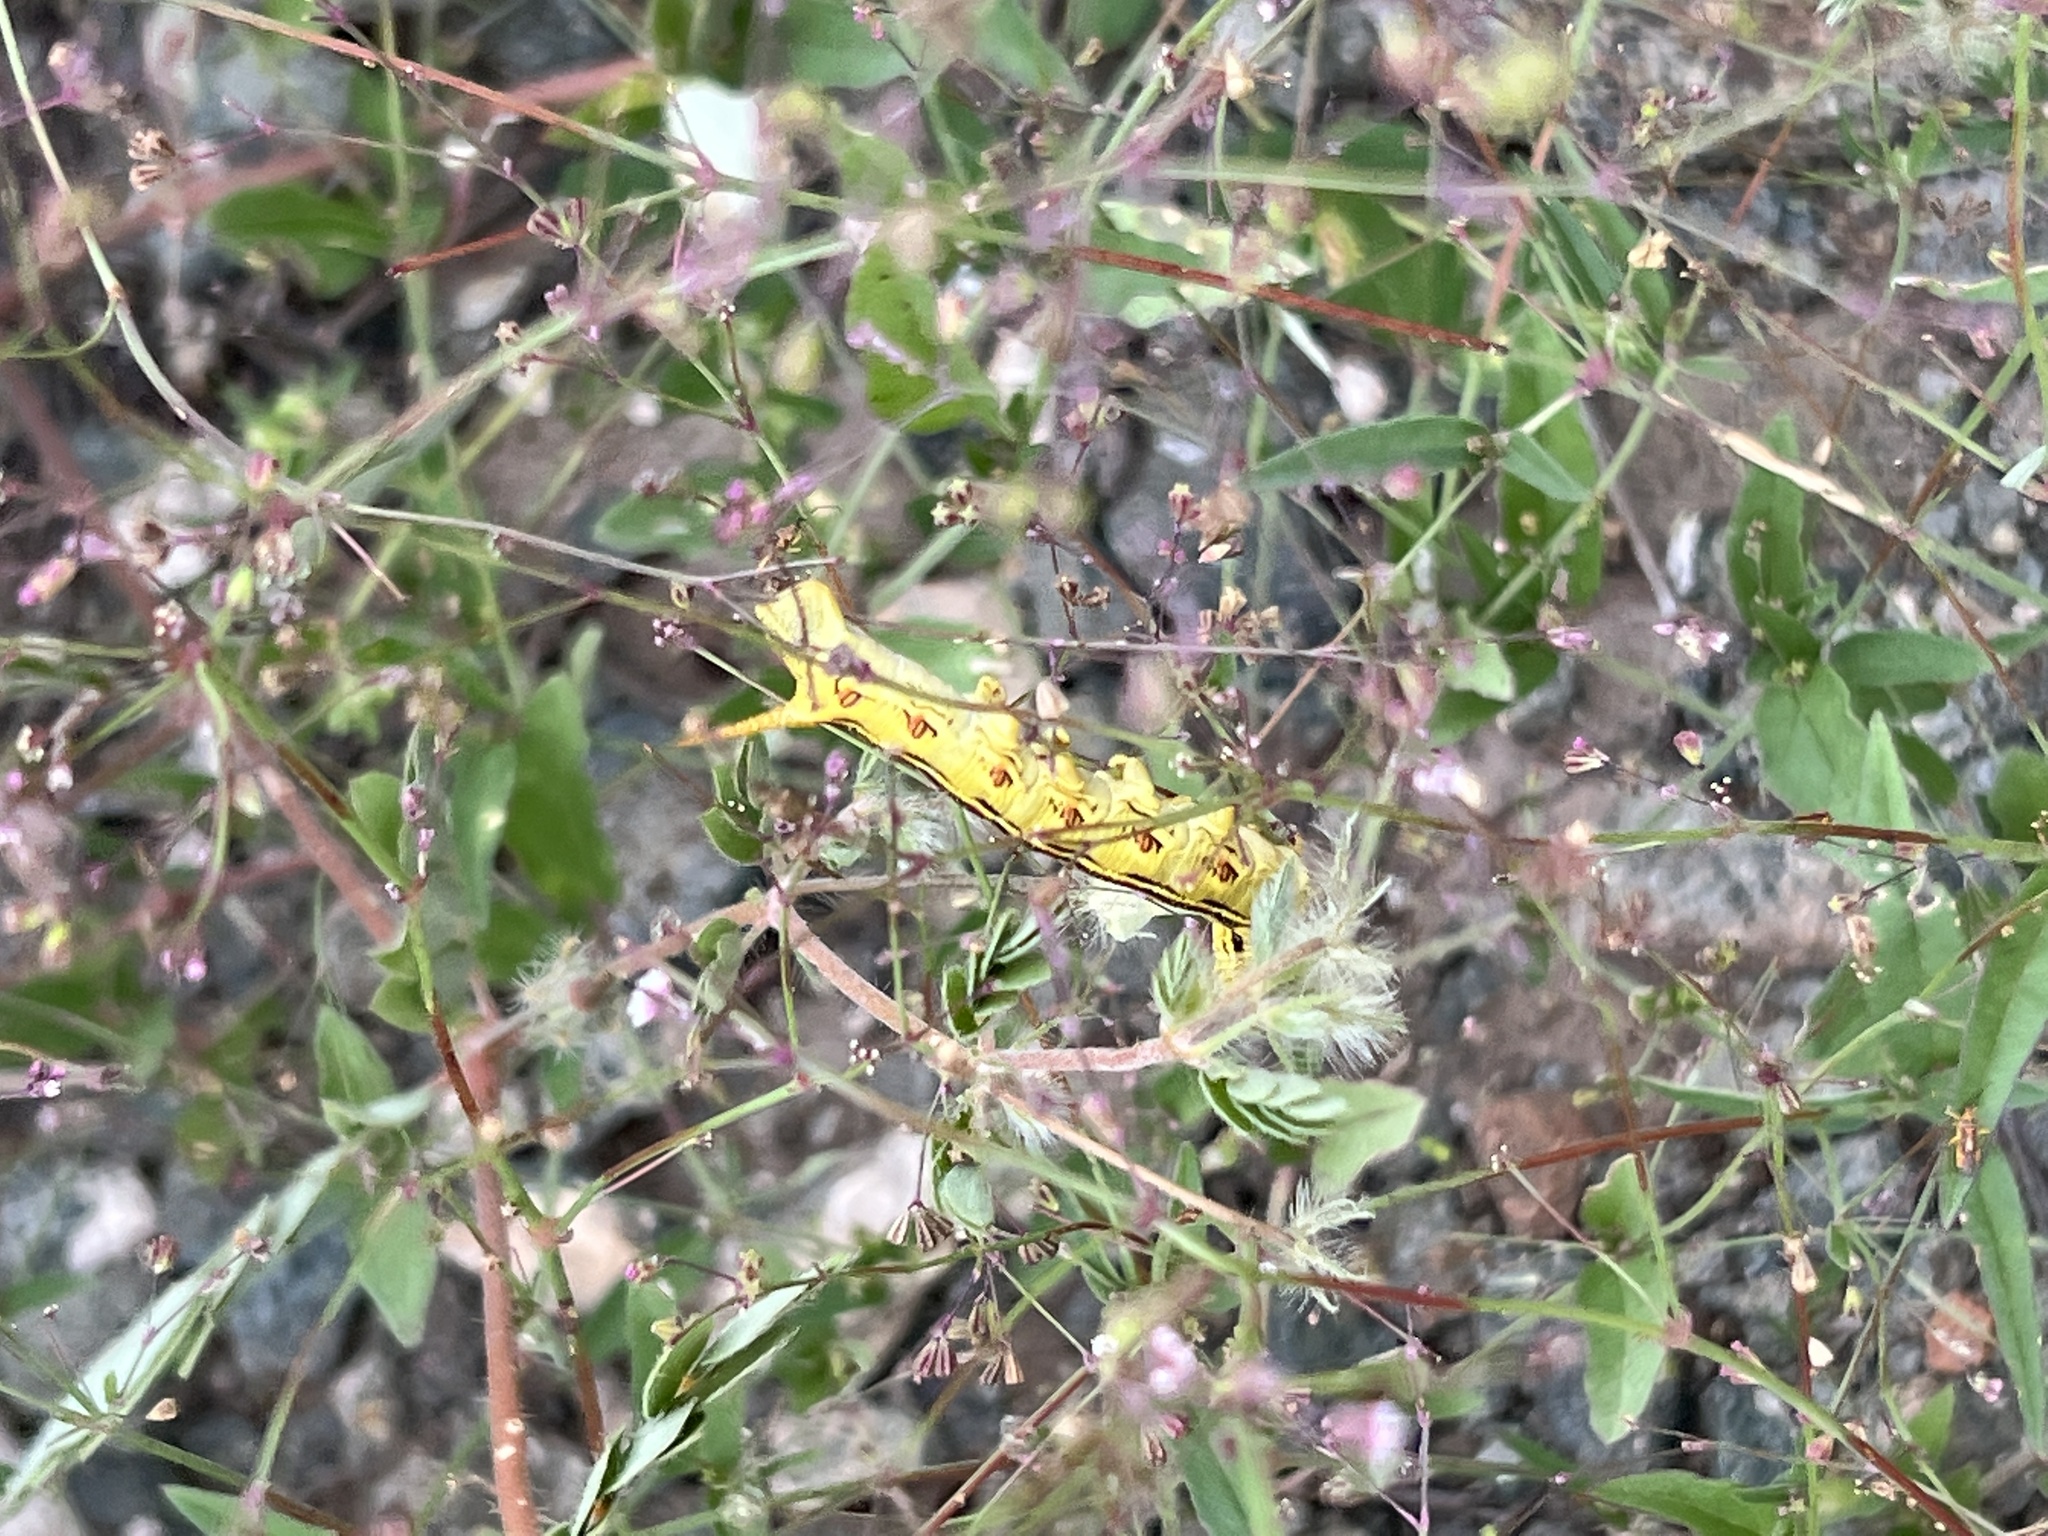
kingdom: Animalia
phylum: Arthropoda
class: Insecta
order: Lepidoptera
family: Sphingidae
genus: Hyles
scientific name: Hyles lineata
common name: White-lined sphinx
